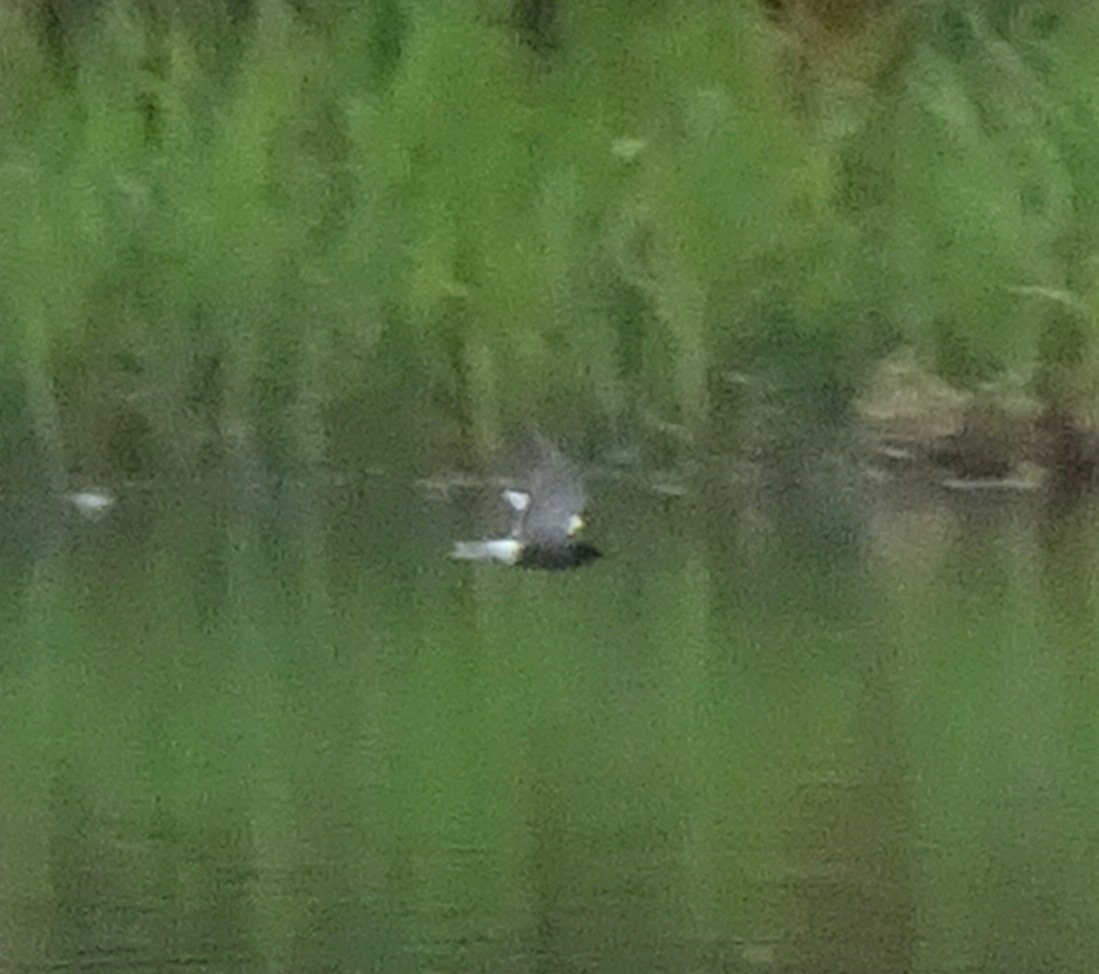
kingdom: Animalia
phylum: Chordata
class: Aves
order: Charadriiformes
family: Laridae
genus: Chlidonias
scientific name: Chlidonias niger
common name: Black tern
